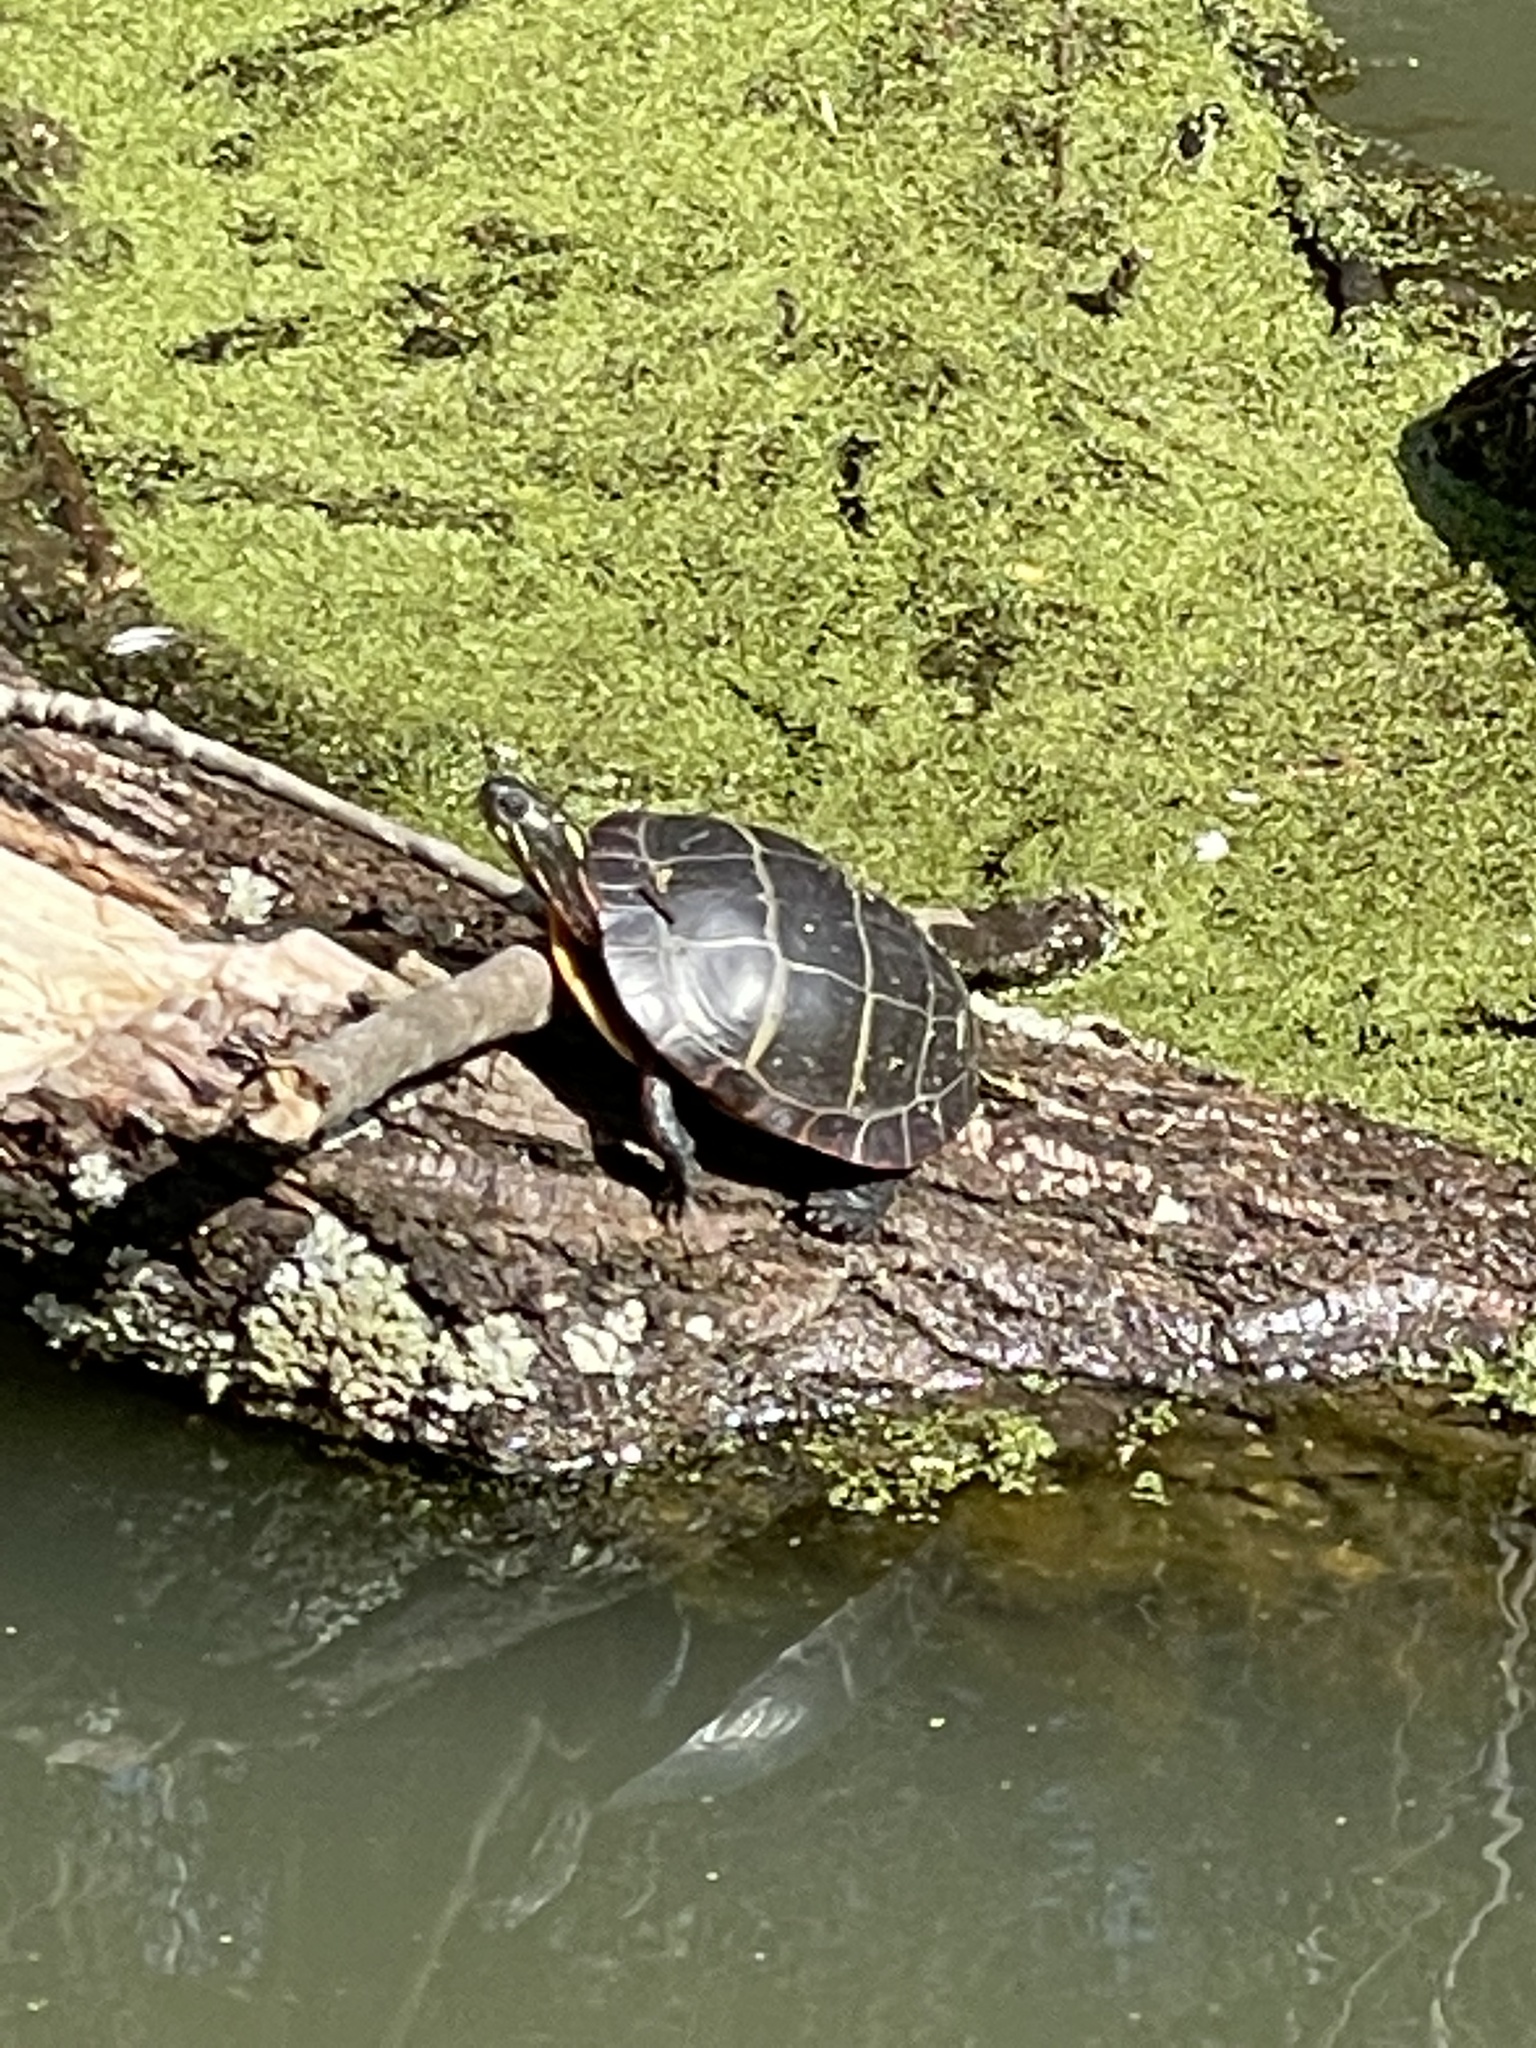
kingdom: Animalia
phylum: Chordata
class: Testudines
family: Emydidae
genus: Chrysemys
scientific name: Chrysemys picta
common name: Painted turtle
